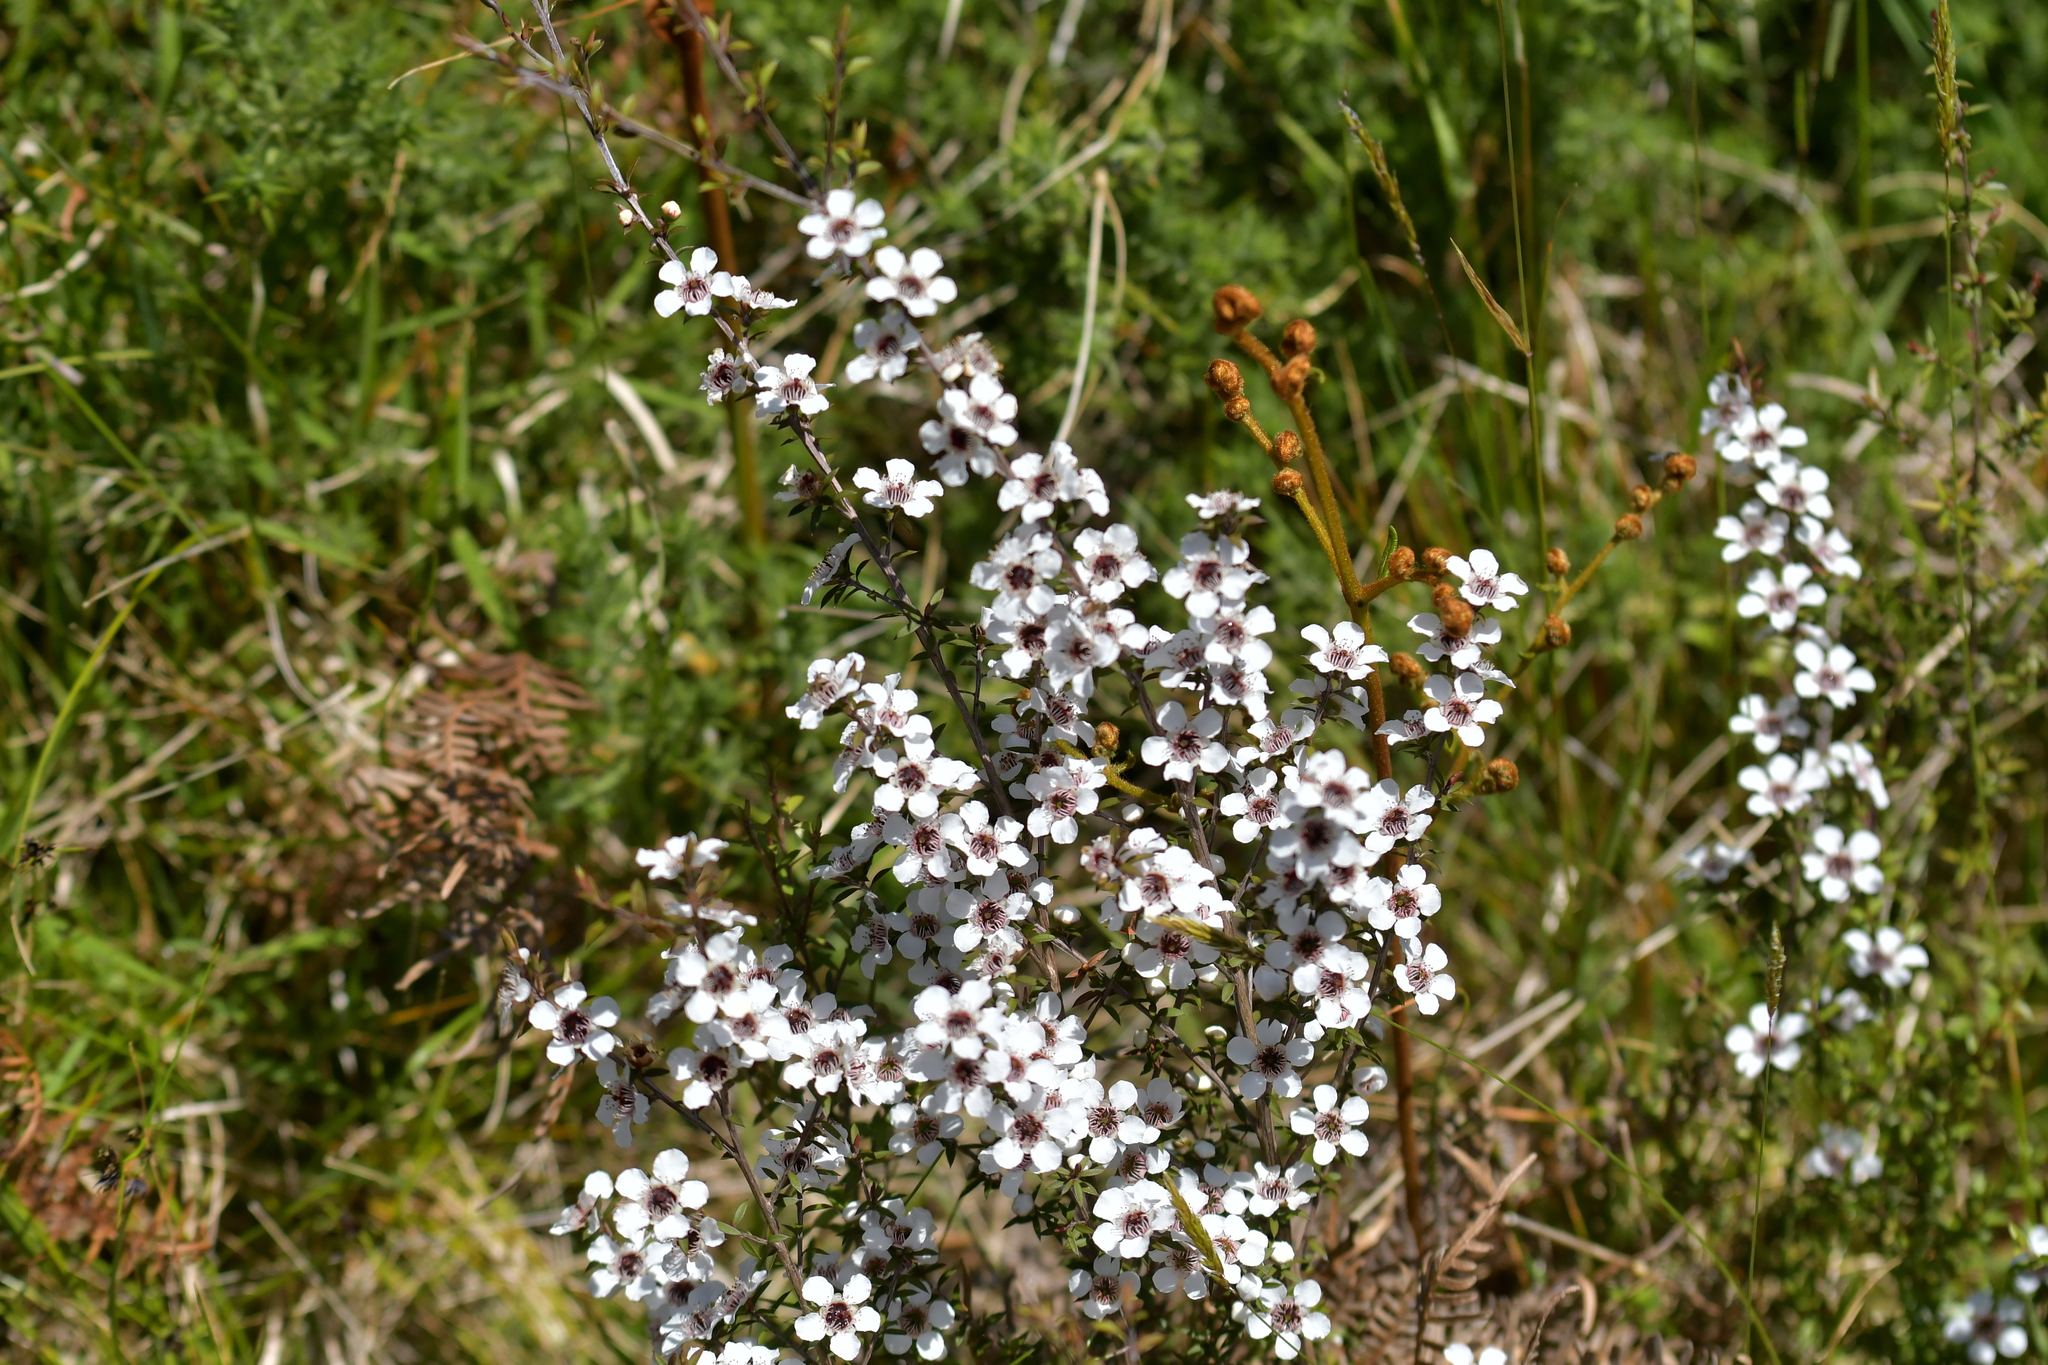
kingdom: Plantae
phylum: Tracheophyta
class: Magnoliopsida
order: Myrtales
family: Myrtaceae
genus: Leptospermum
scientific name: Leptospermum scoparium
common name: Broom tea-tree
